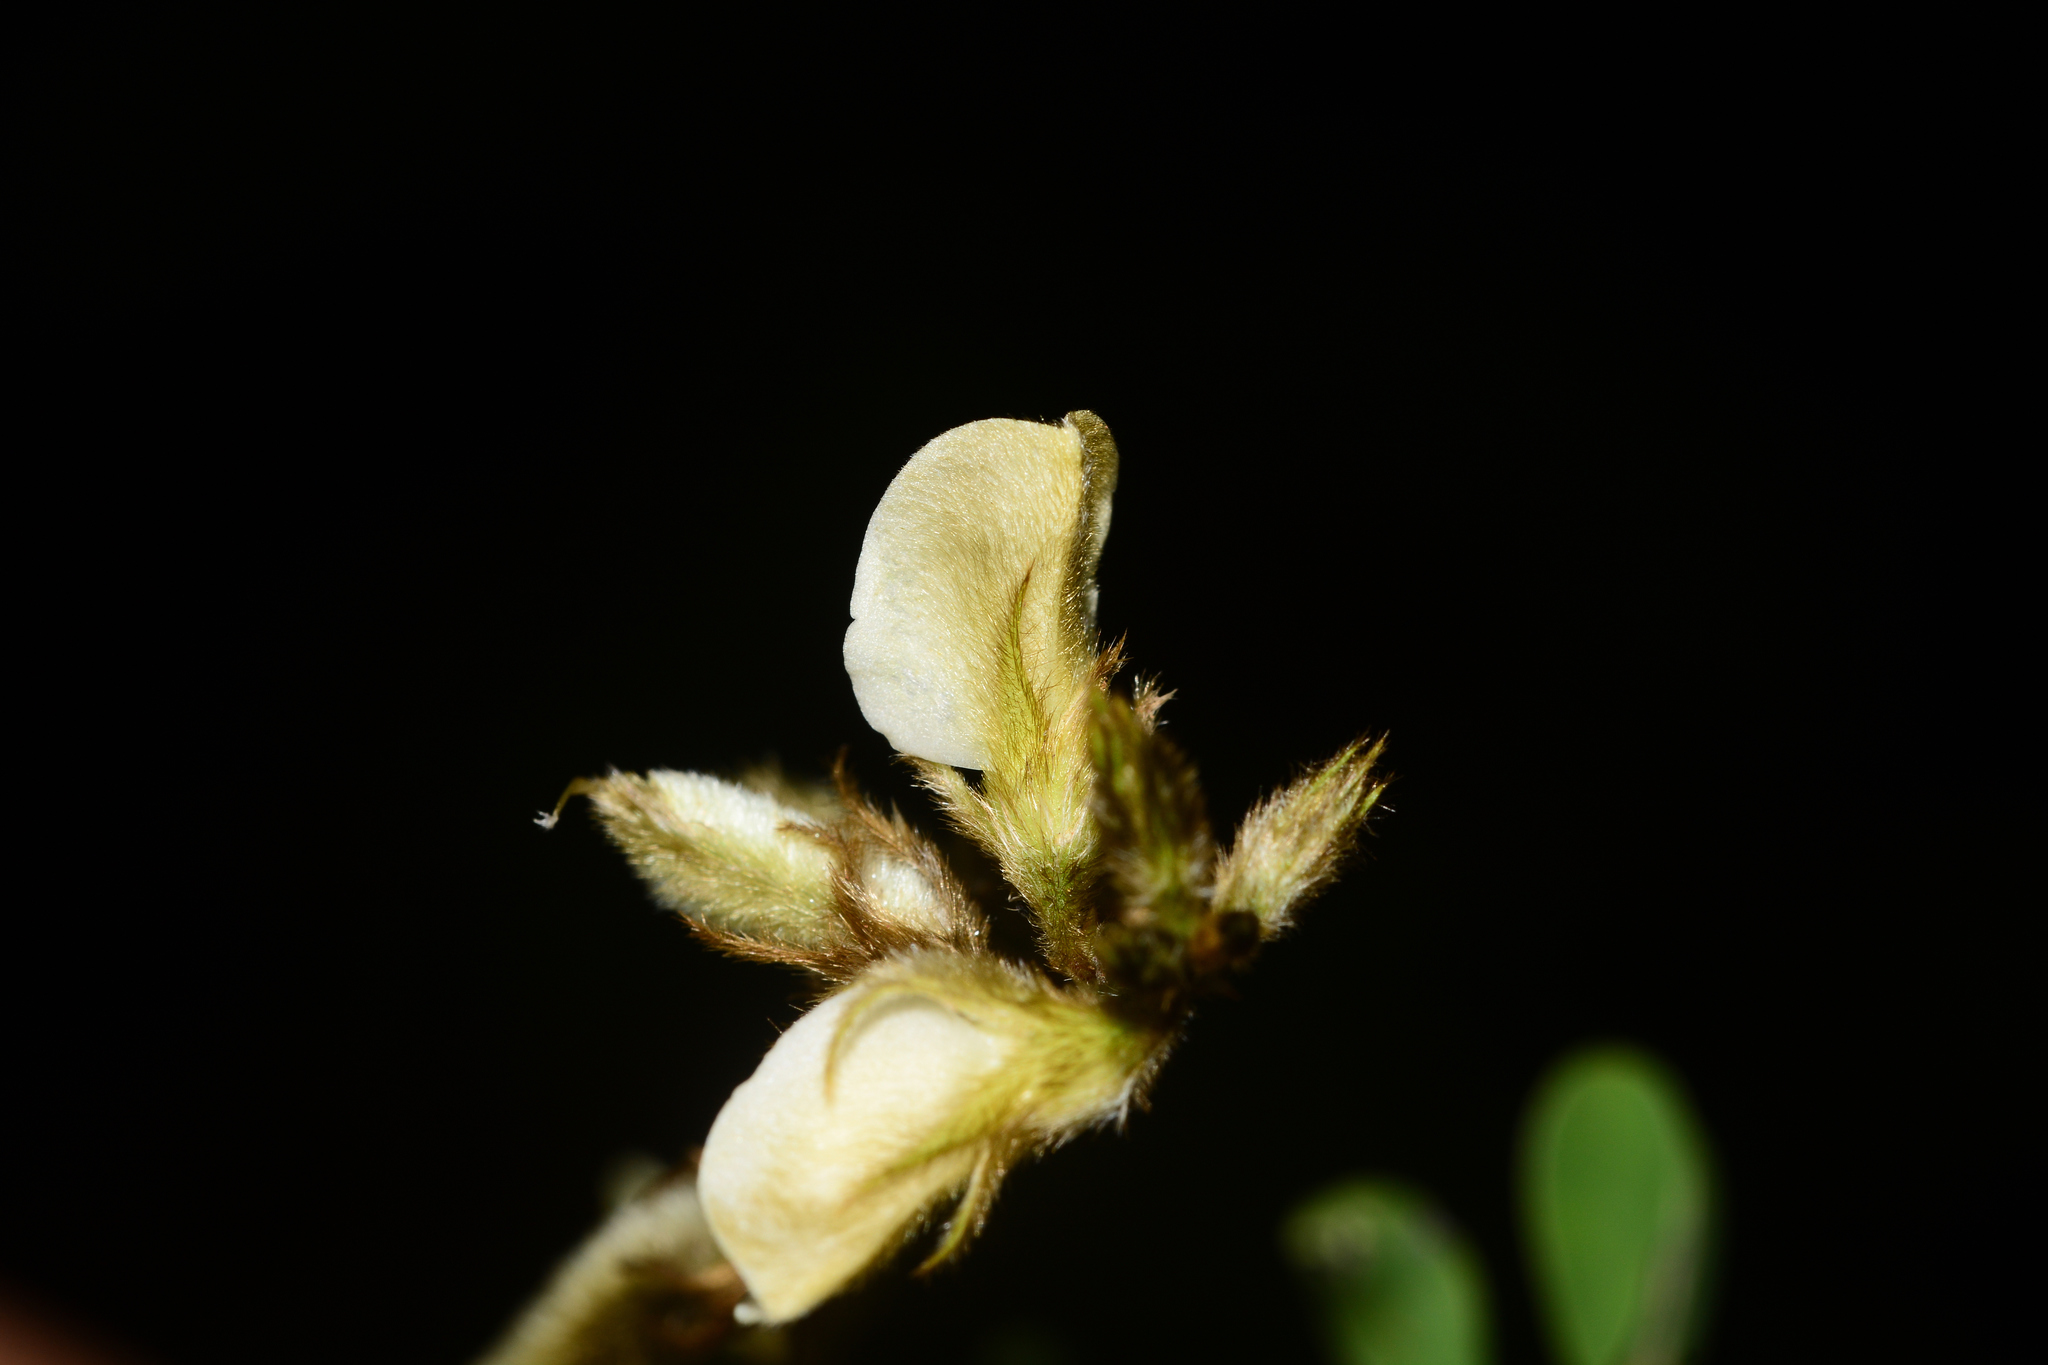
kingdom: Plantae
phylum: Tracheophyta
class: Magnoliopsida
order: Fabales
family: Fabaceae
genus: Tephrosia
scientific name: Tephrosia villosa
